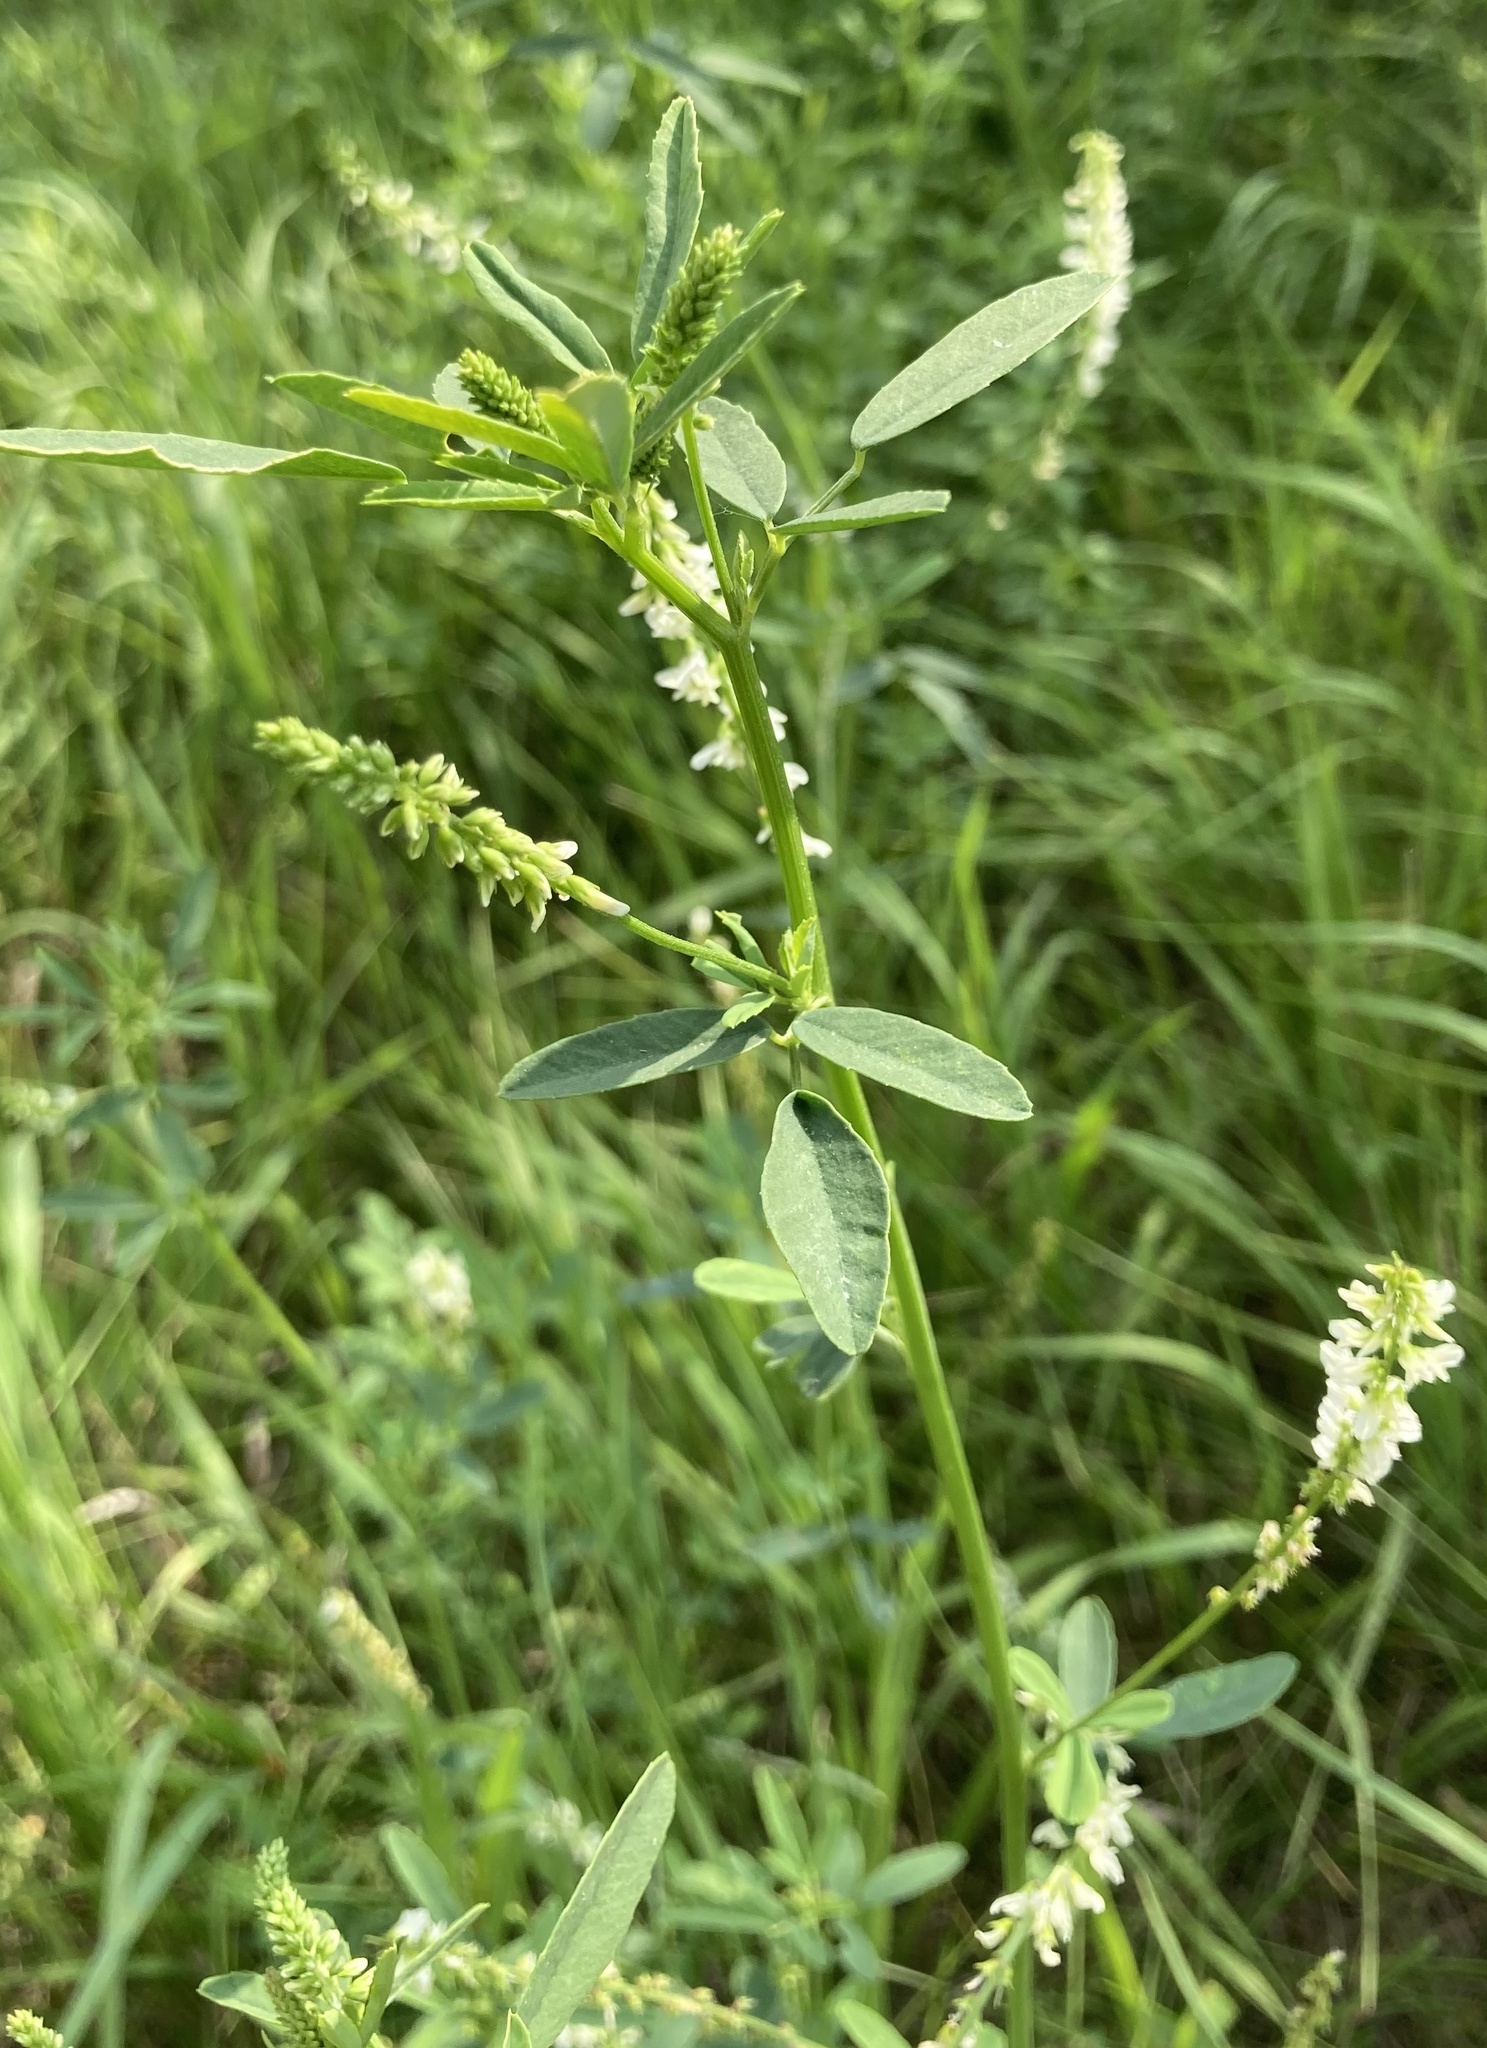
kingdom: Plantae
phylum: Tracheophyta
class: Magnoliopsida
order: Fabales
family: Fabaceae
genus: Melilotus
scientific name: Melilotus albus
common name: White melilot
